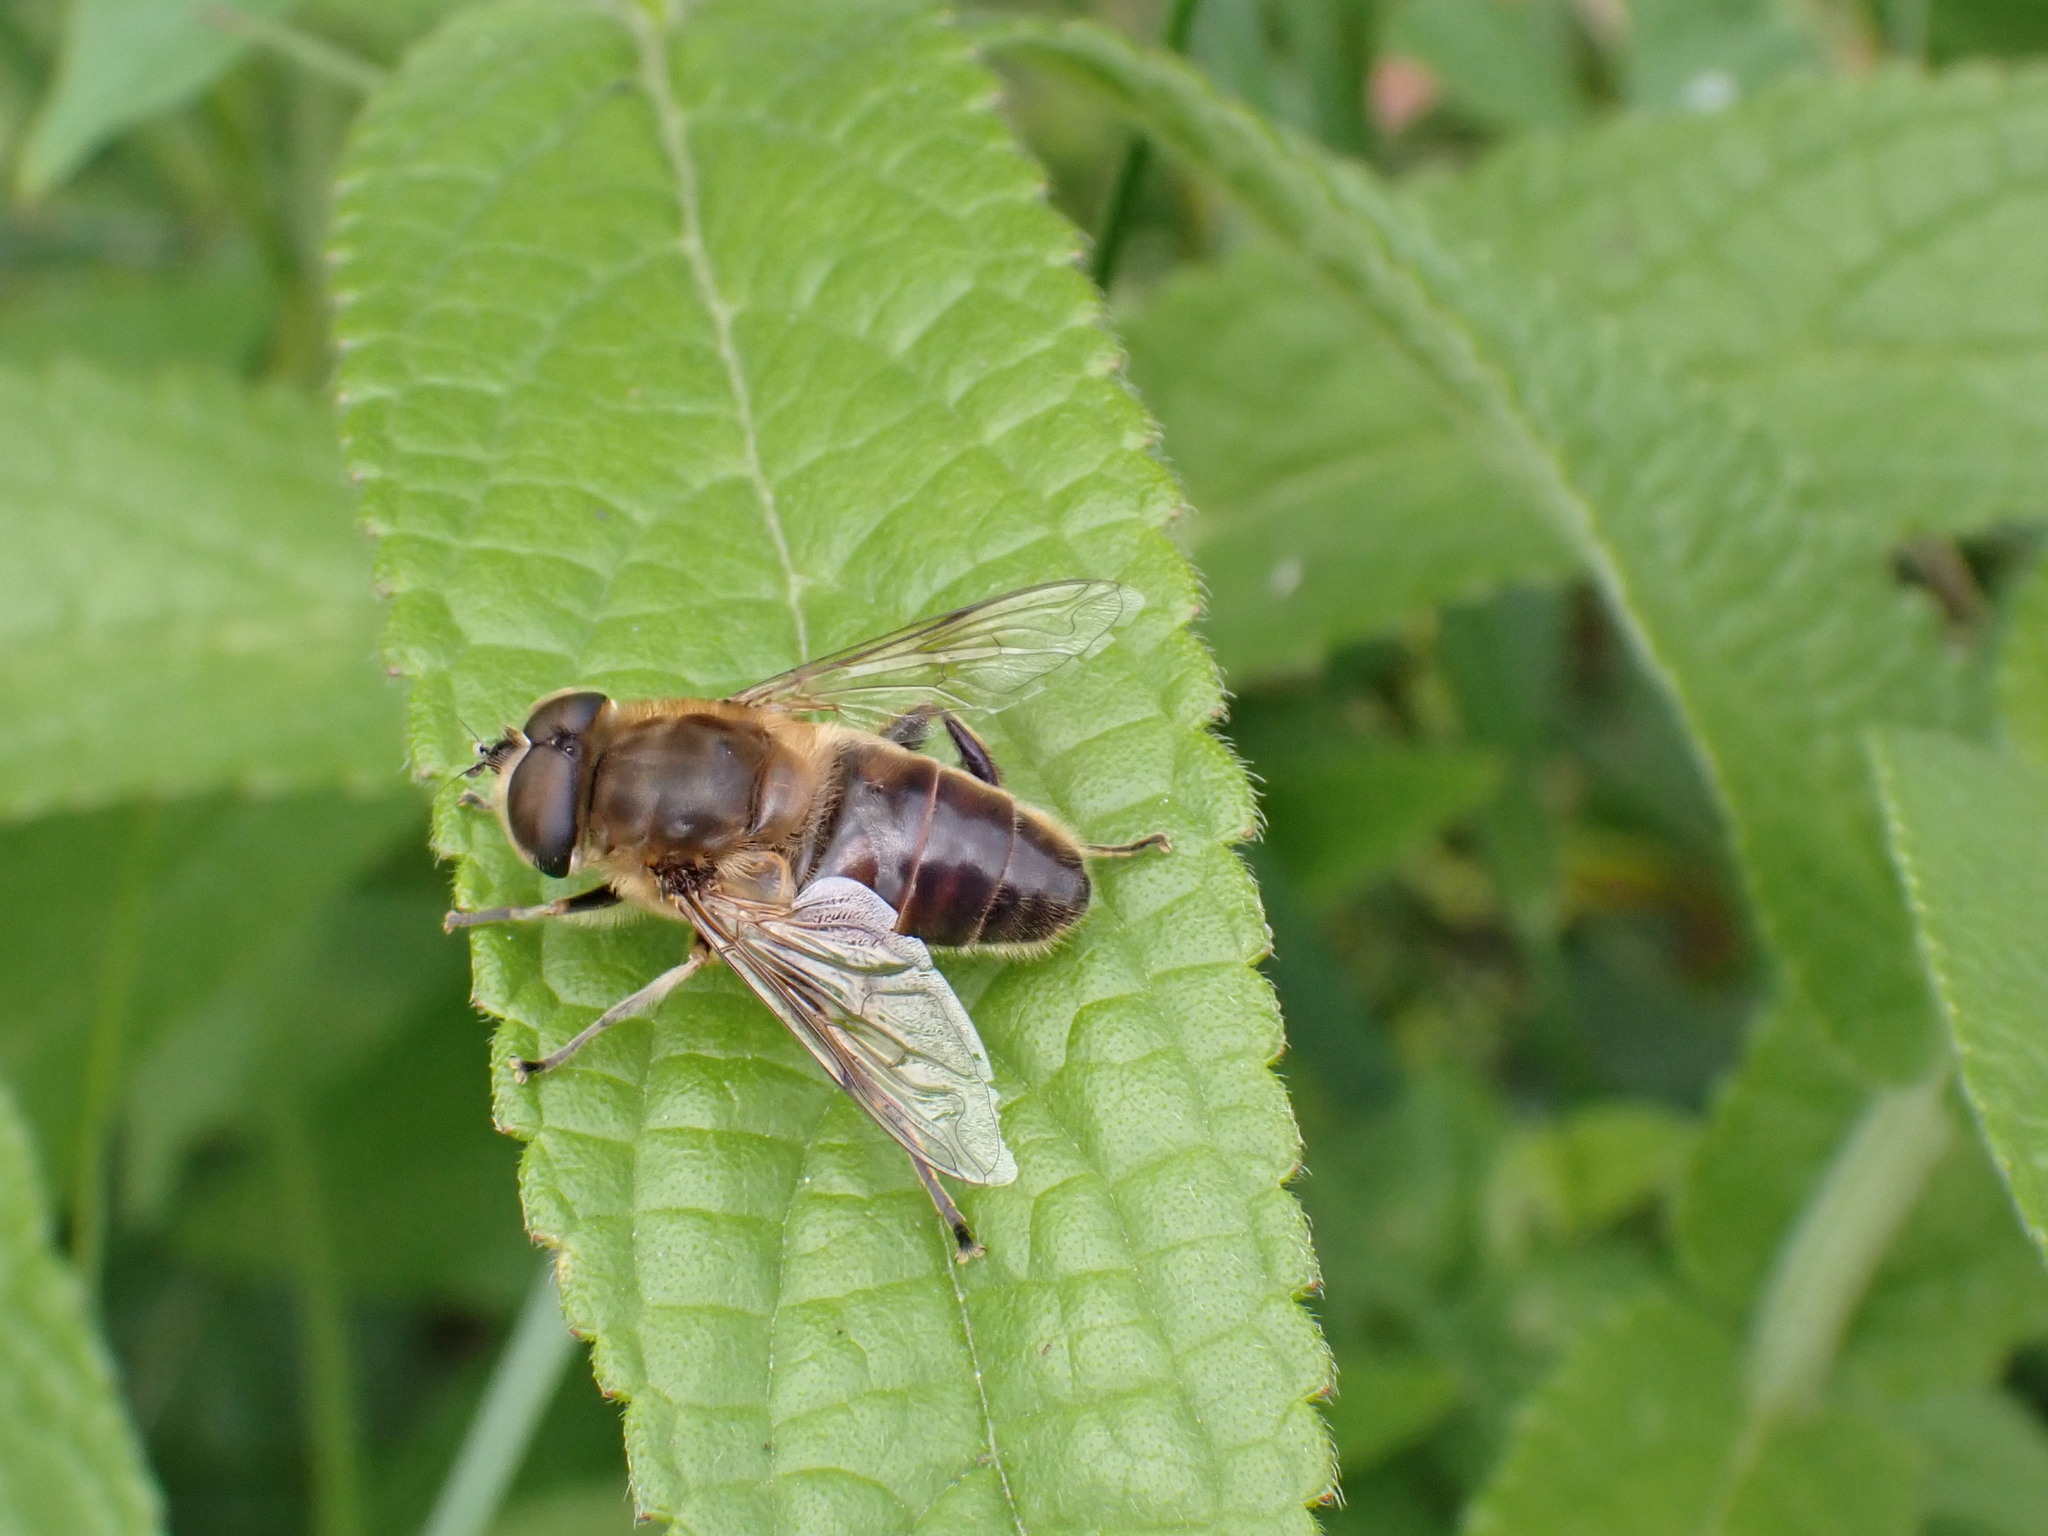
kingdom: Animalia
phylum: Arthropoda
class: Insecta
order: Diptera
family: Syrphidae
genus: Eristalis
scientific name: Eristalis tenax
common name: Drone fly
